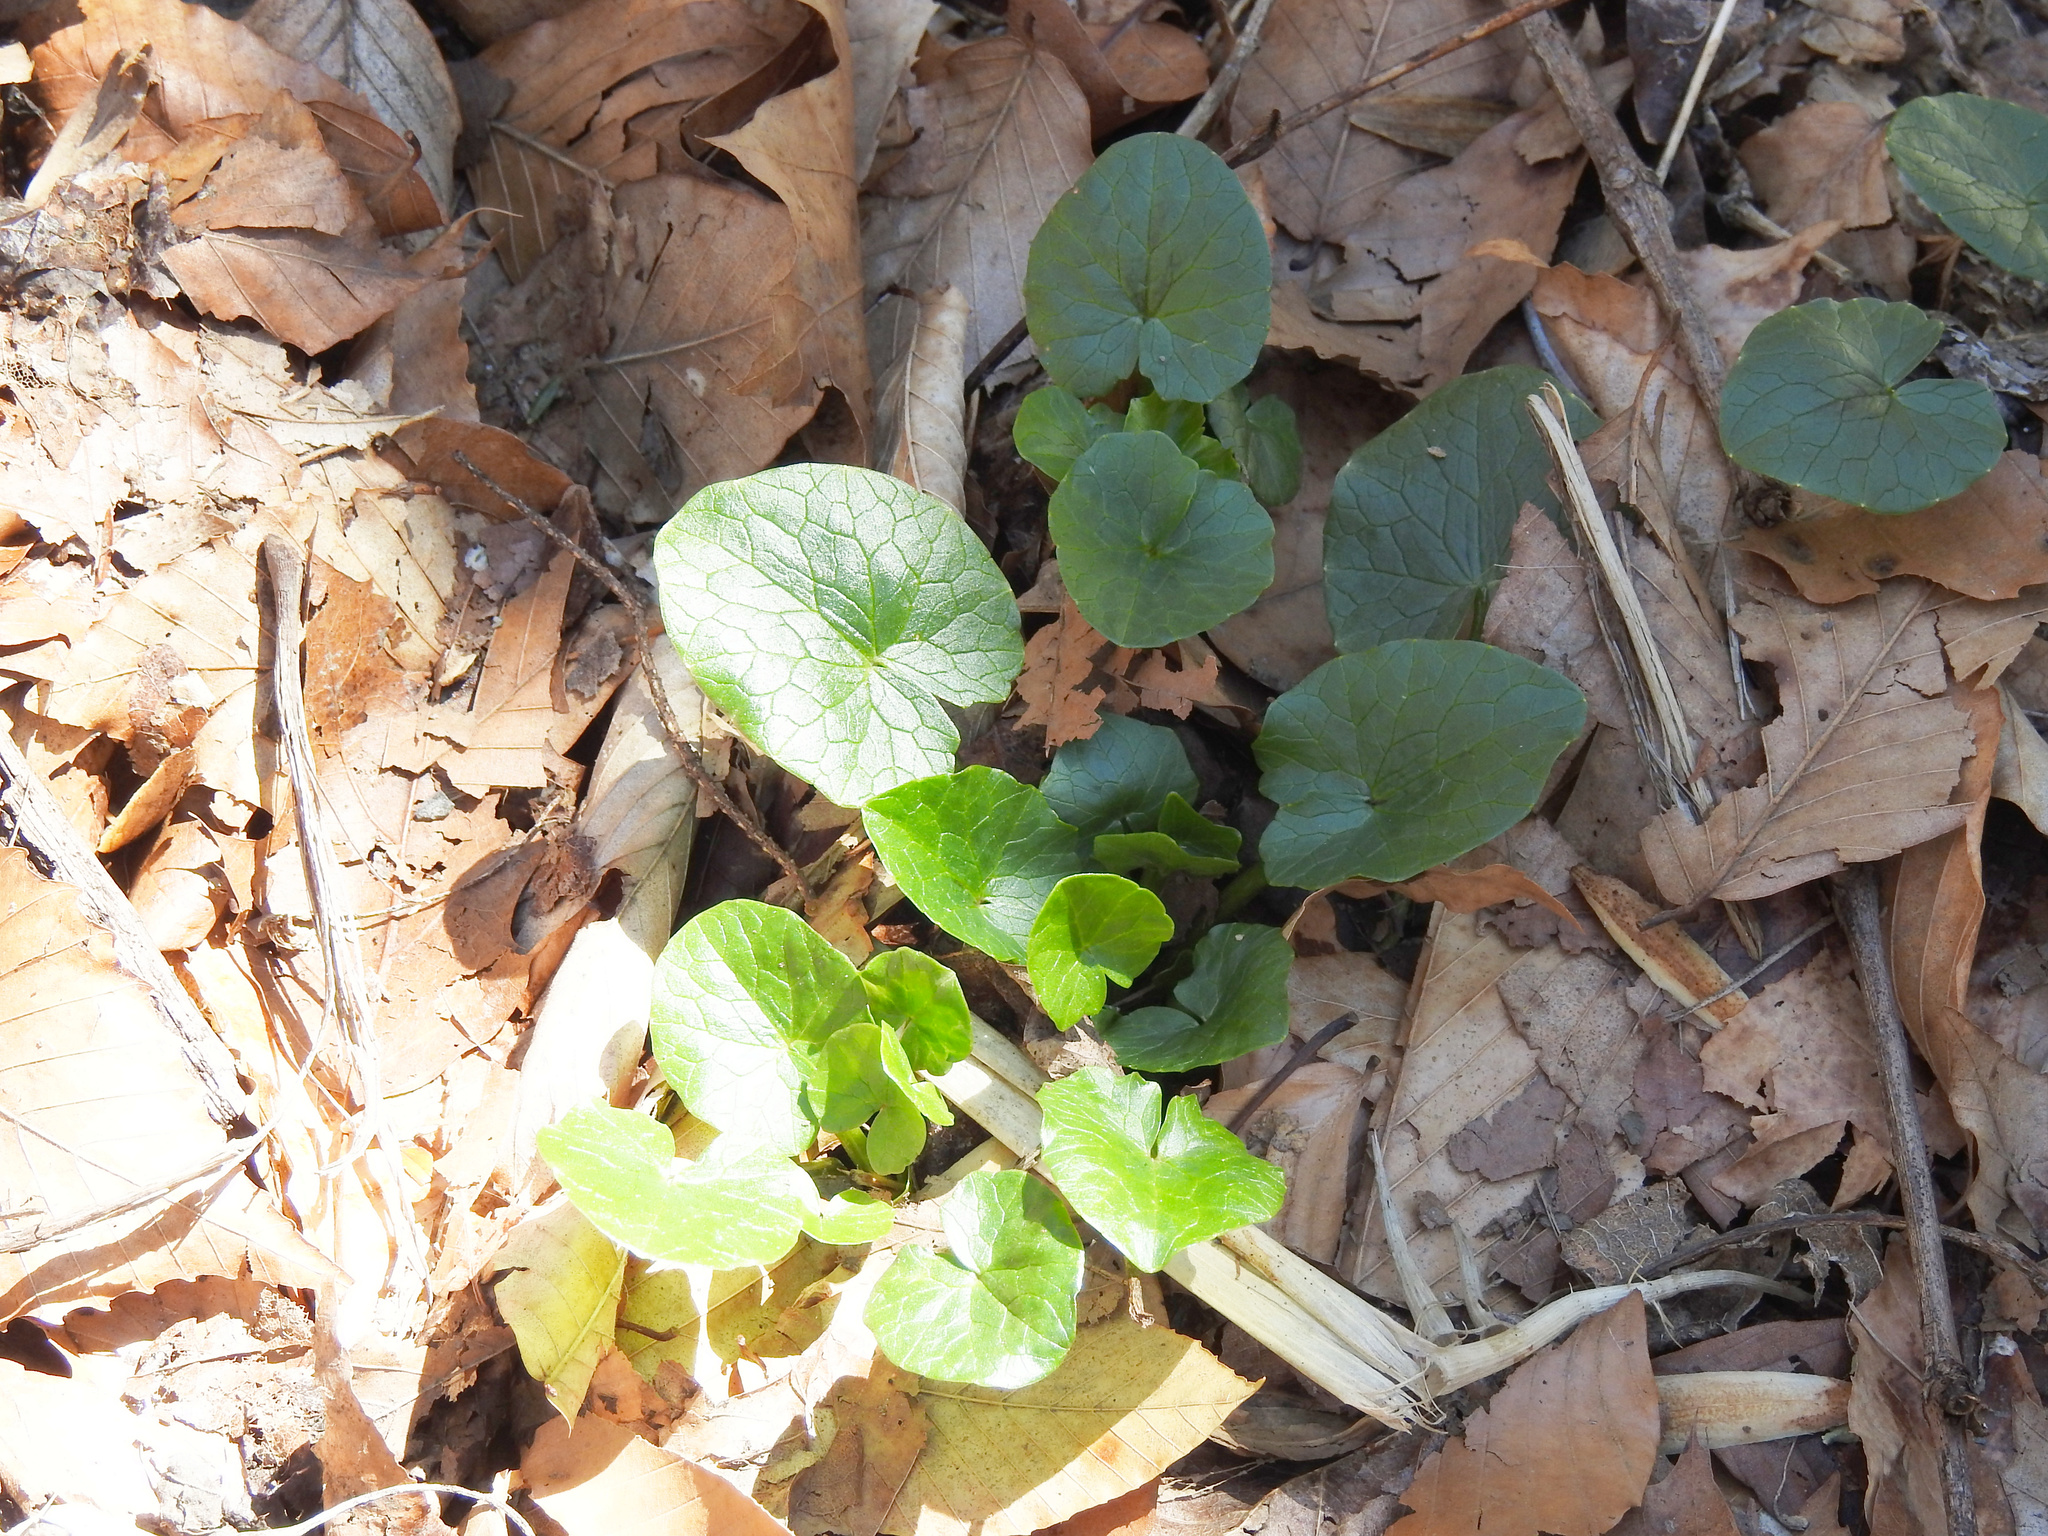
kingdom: Plantae
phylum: Tracheophyta
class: Magnoliopsida
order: Ranunculales
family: Ranunculaceae
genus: Ficaria
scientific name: Ficaria verna
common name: Lesser celandine
